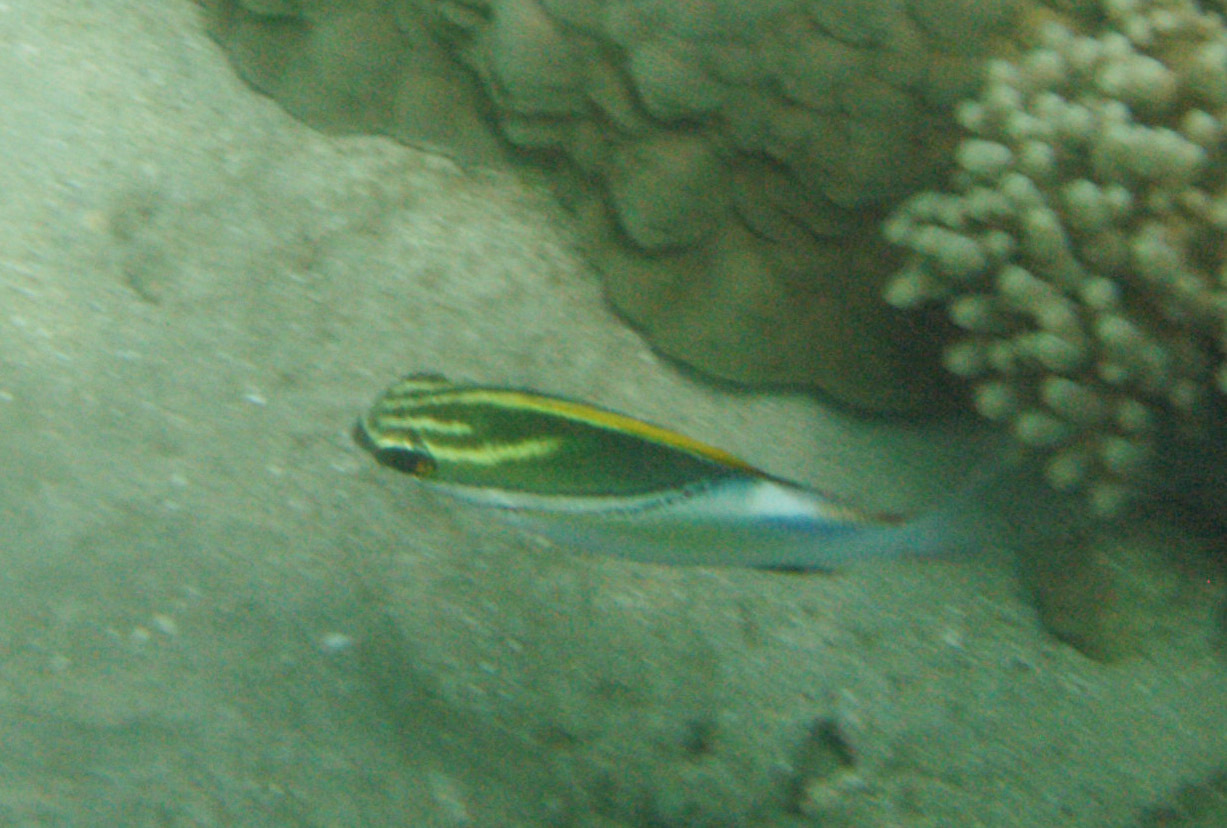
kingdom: Animalia
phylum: Chordata
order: Perciformes
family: Nemipteridae
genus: Scolopsis
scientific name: Scolopsis bilineata
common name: Two-lined monocle bream
